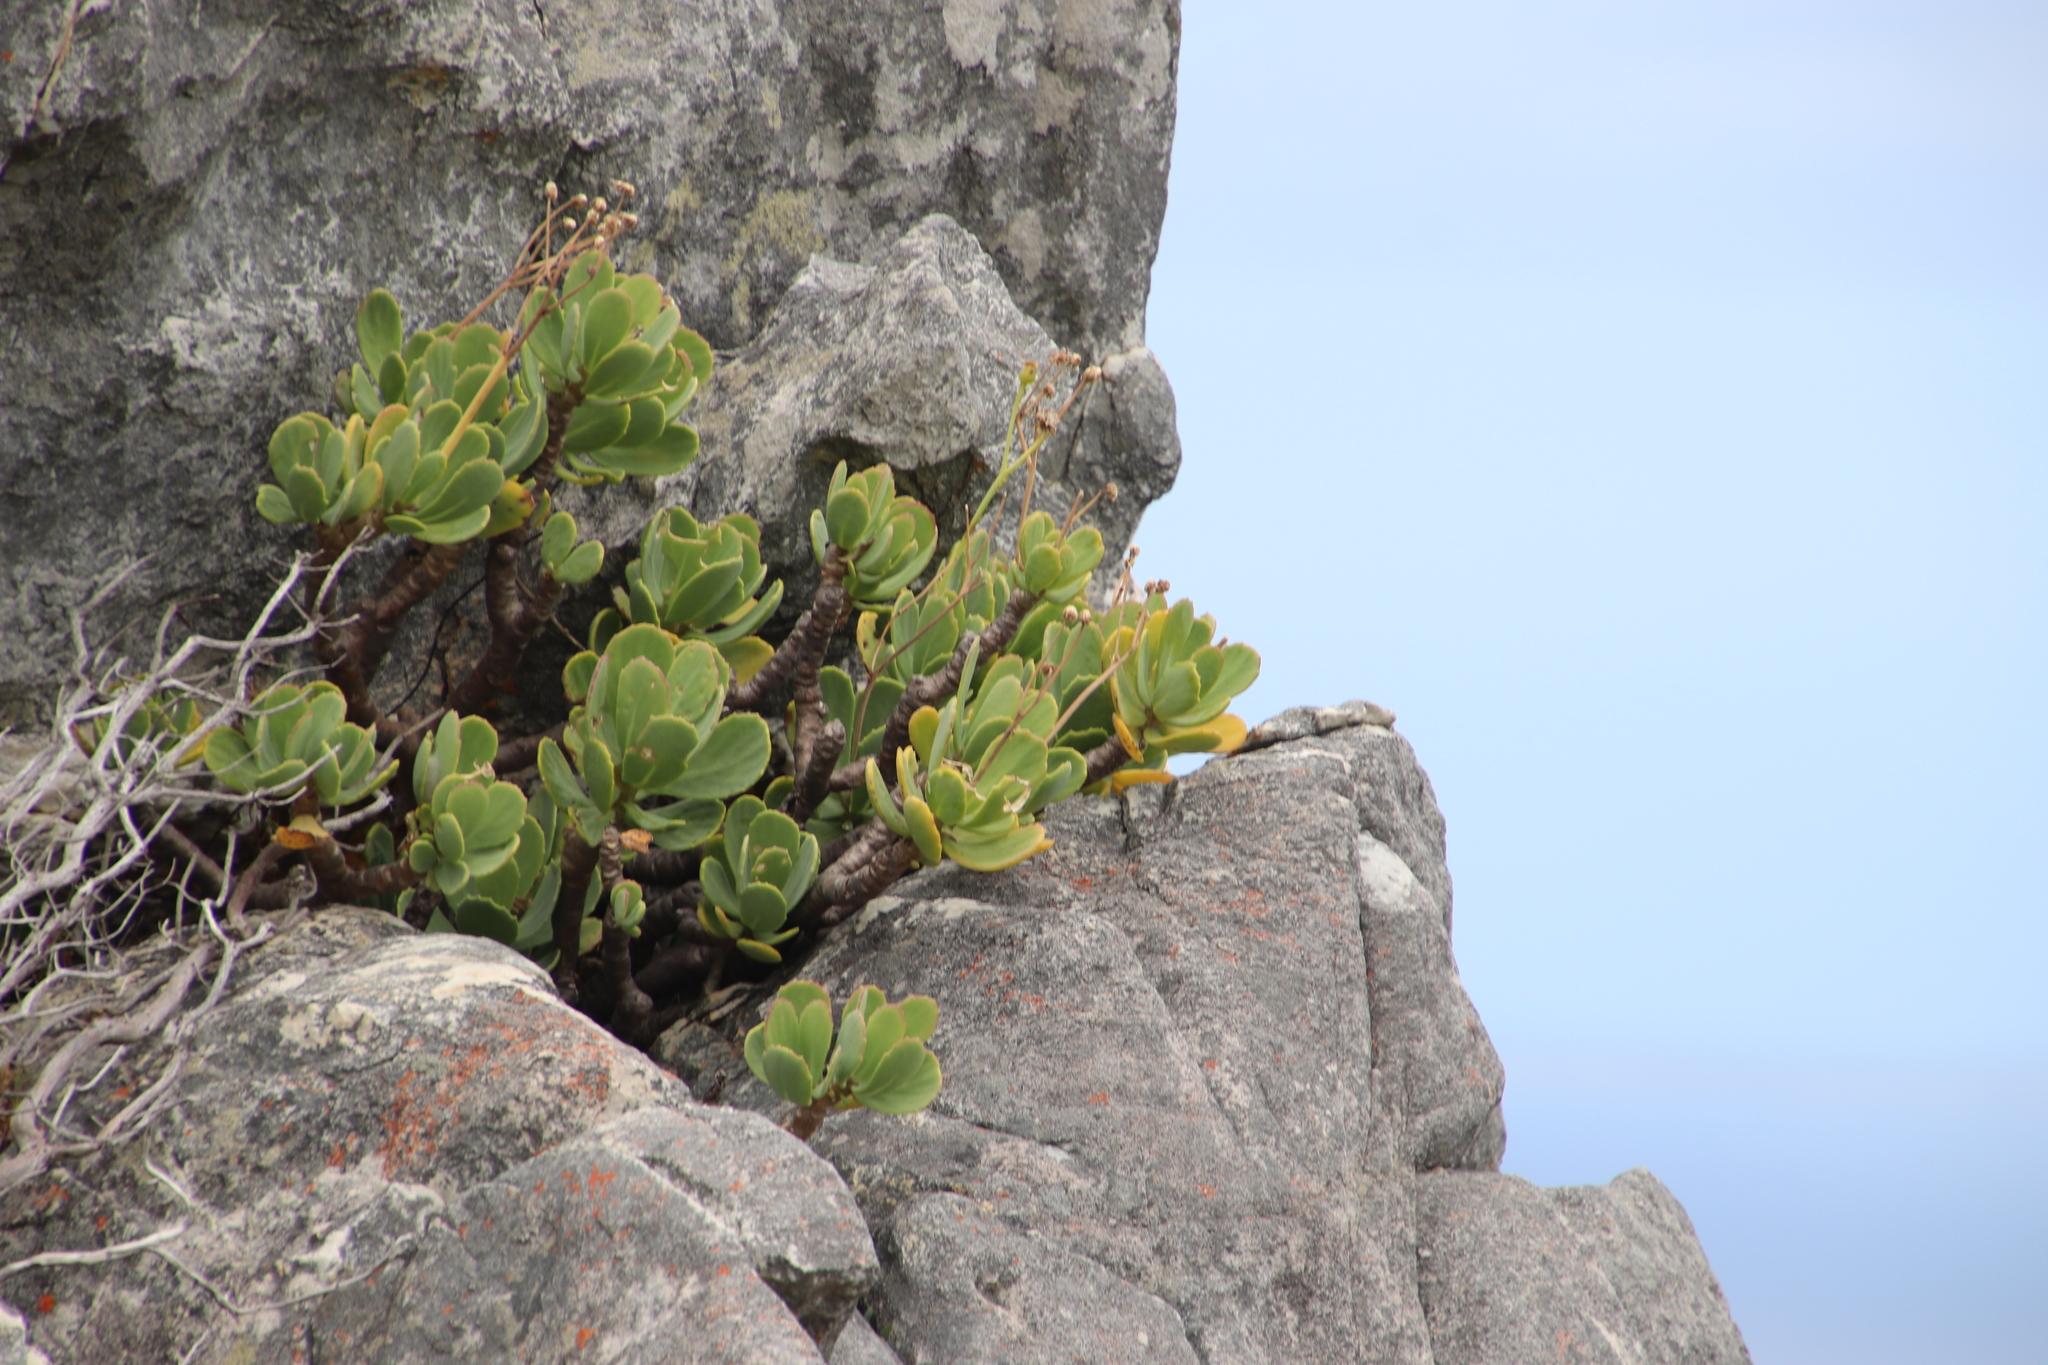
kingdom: Plantae
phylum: Tracheophyta
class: Magnoliopsida
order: Asterales
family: Asteraceae
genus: Othonna
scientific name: Othonna dentata
